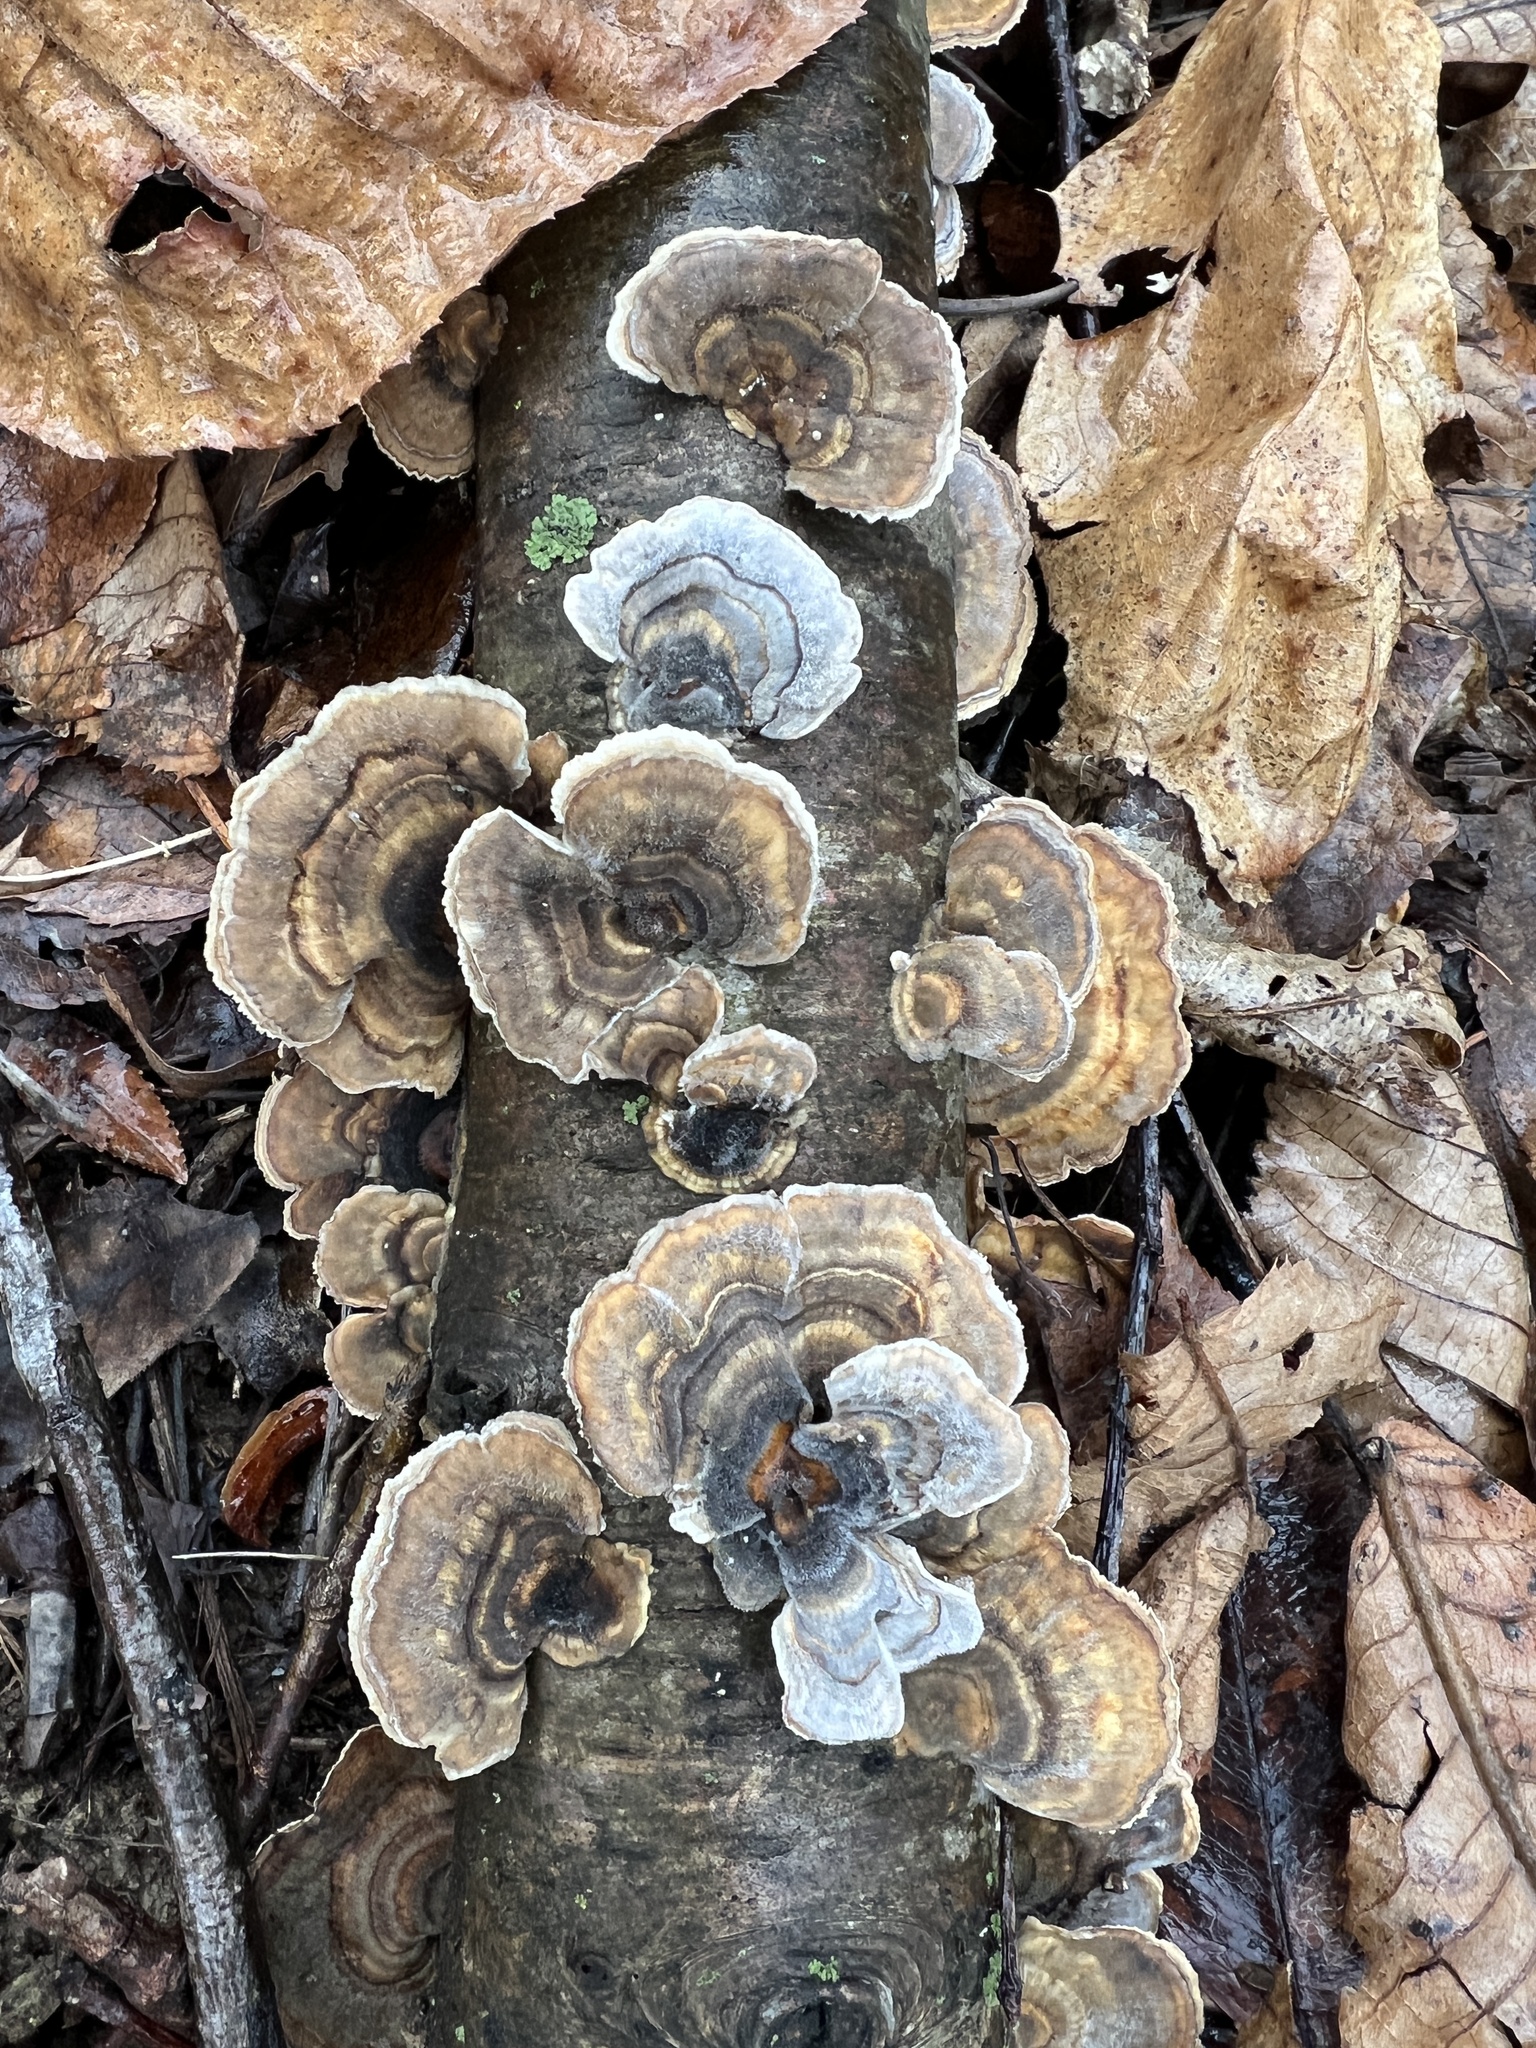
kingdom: Fungi
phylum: Basidiomycota
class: Agaricomycetes
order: Polyporales
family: Polyporaceae
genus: Trametes
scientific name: Trametes versicolor
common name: Turkeytail
